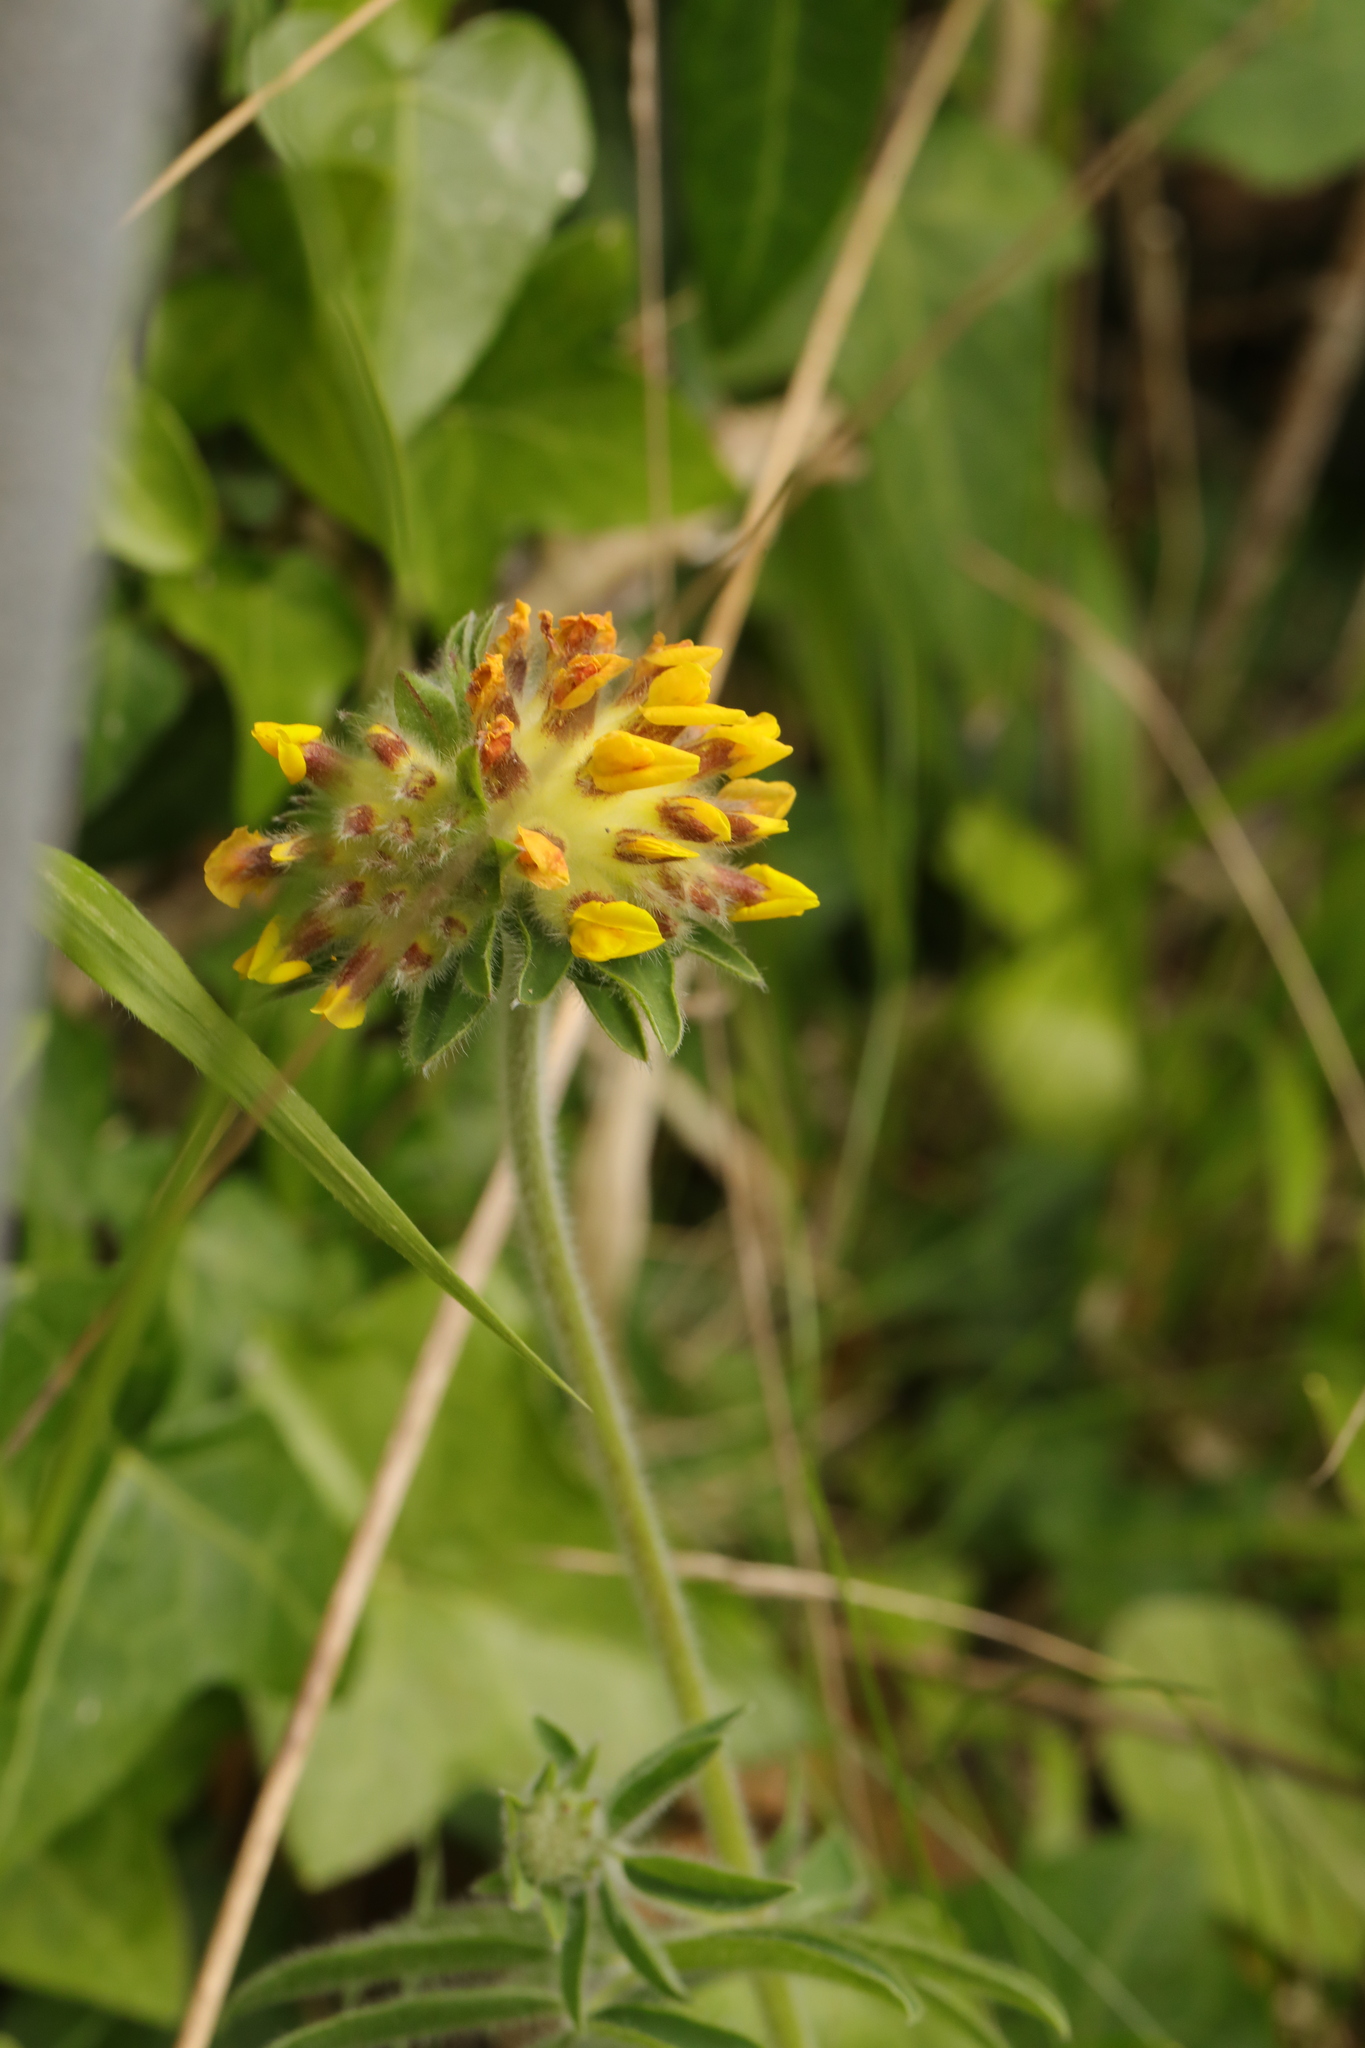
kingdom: Plantae
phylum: Tracheophyta
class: Magnoliopsida
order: Fabales
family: Fabaceae
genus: Anthyllis
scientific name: Anthyllis vulneraria
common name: Kidney vetch
